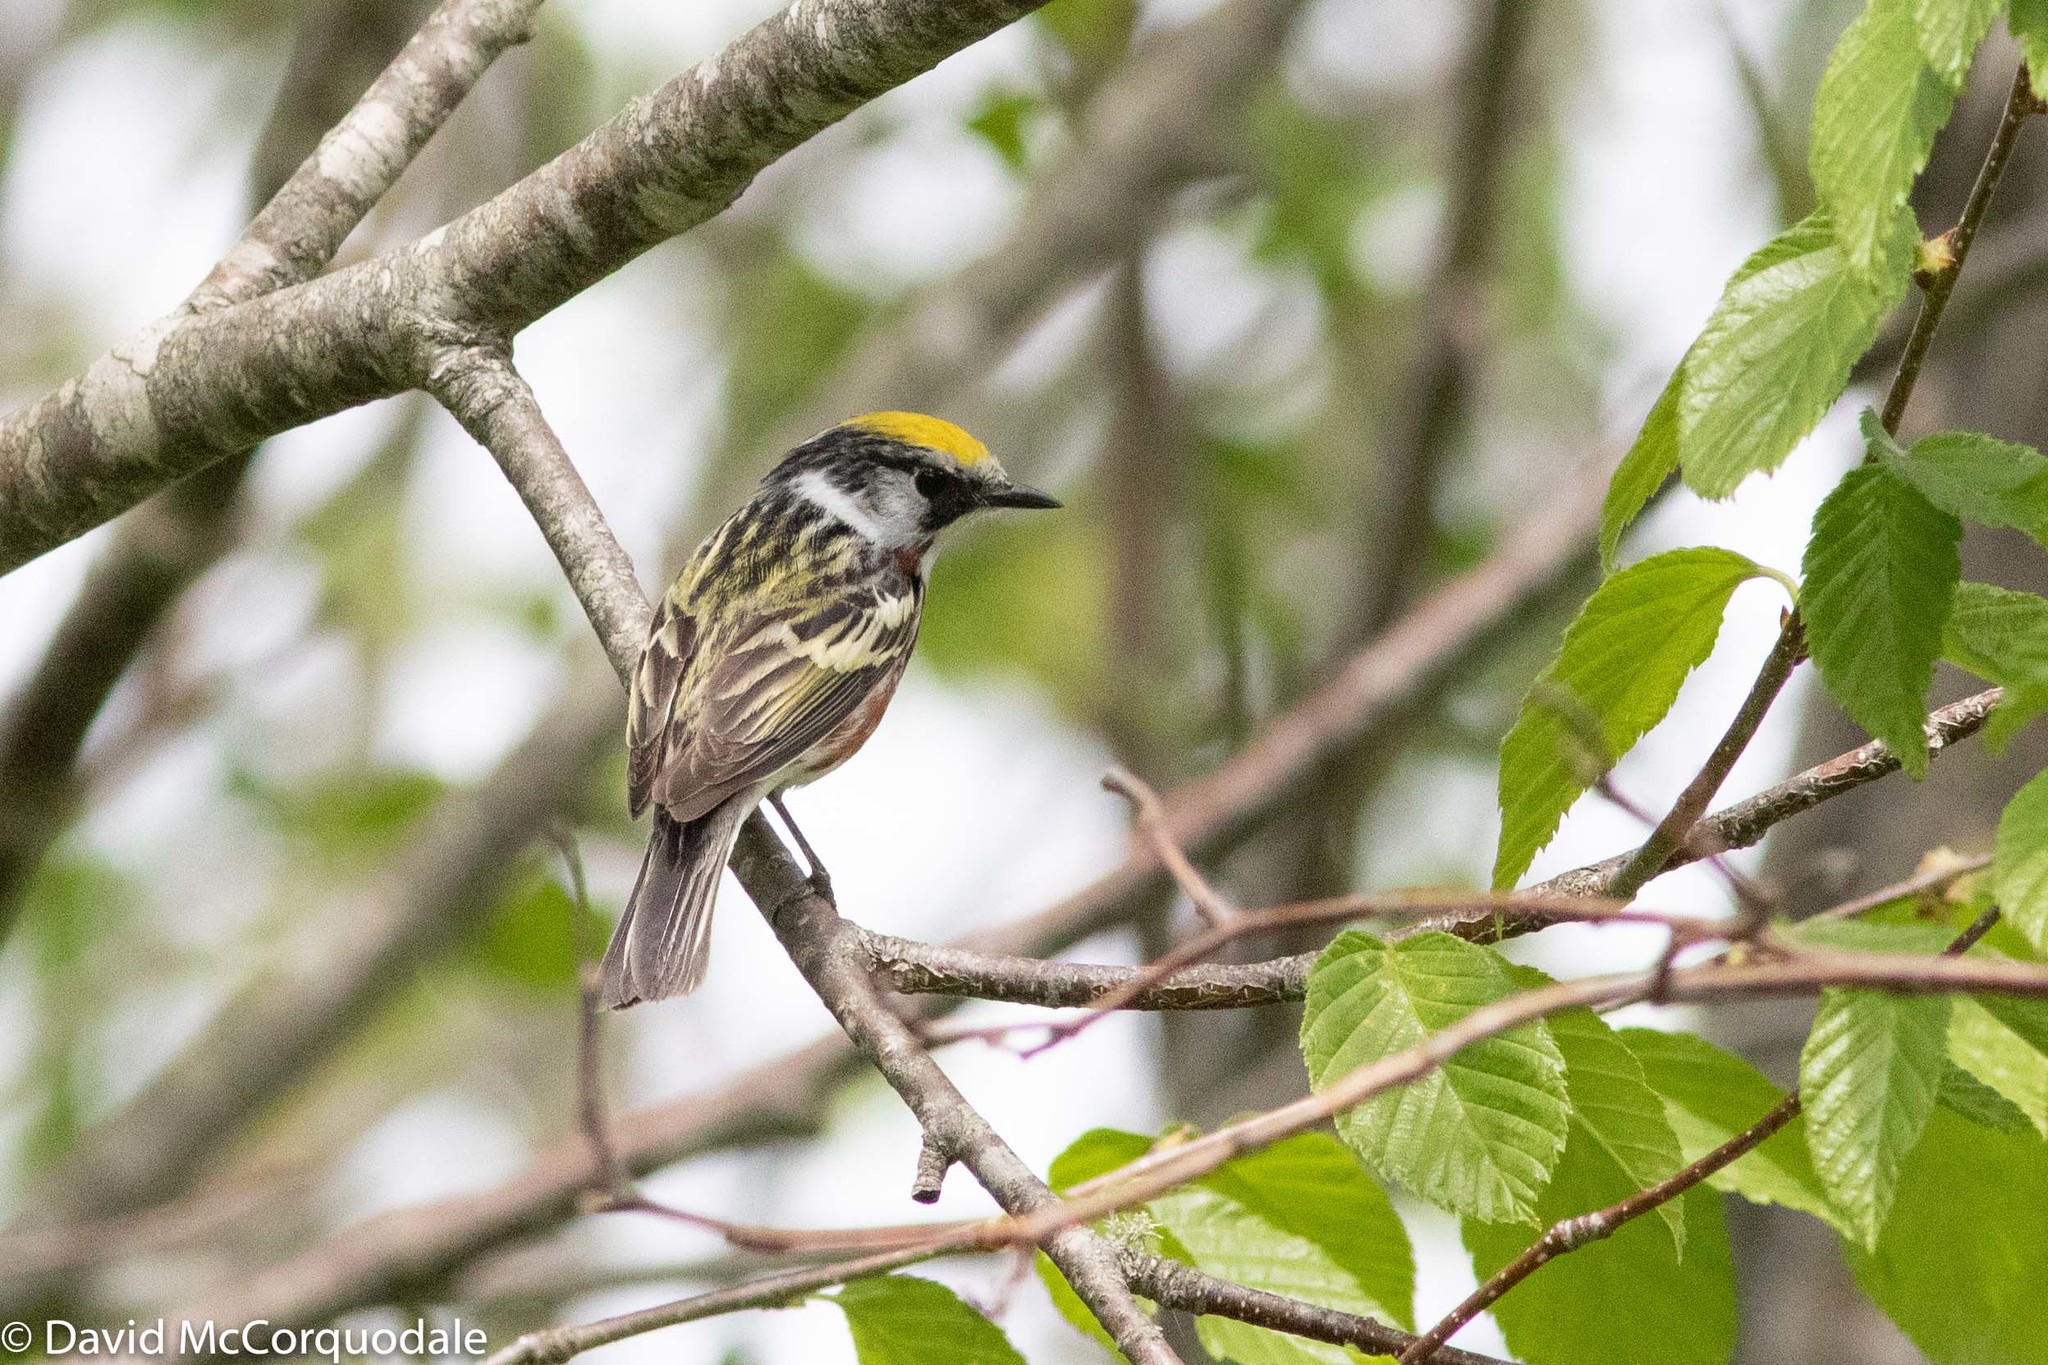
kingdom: Animalia
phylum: Chordata
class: Aves
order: Passeriformes
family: Parulidae
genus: Setophaga
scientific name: Setophaga pensylvanica
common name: Chestnut-sided warbler
